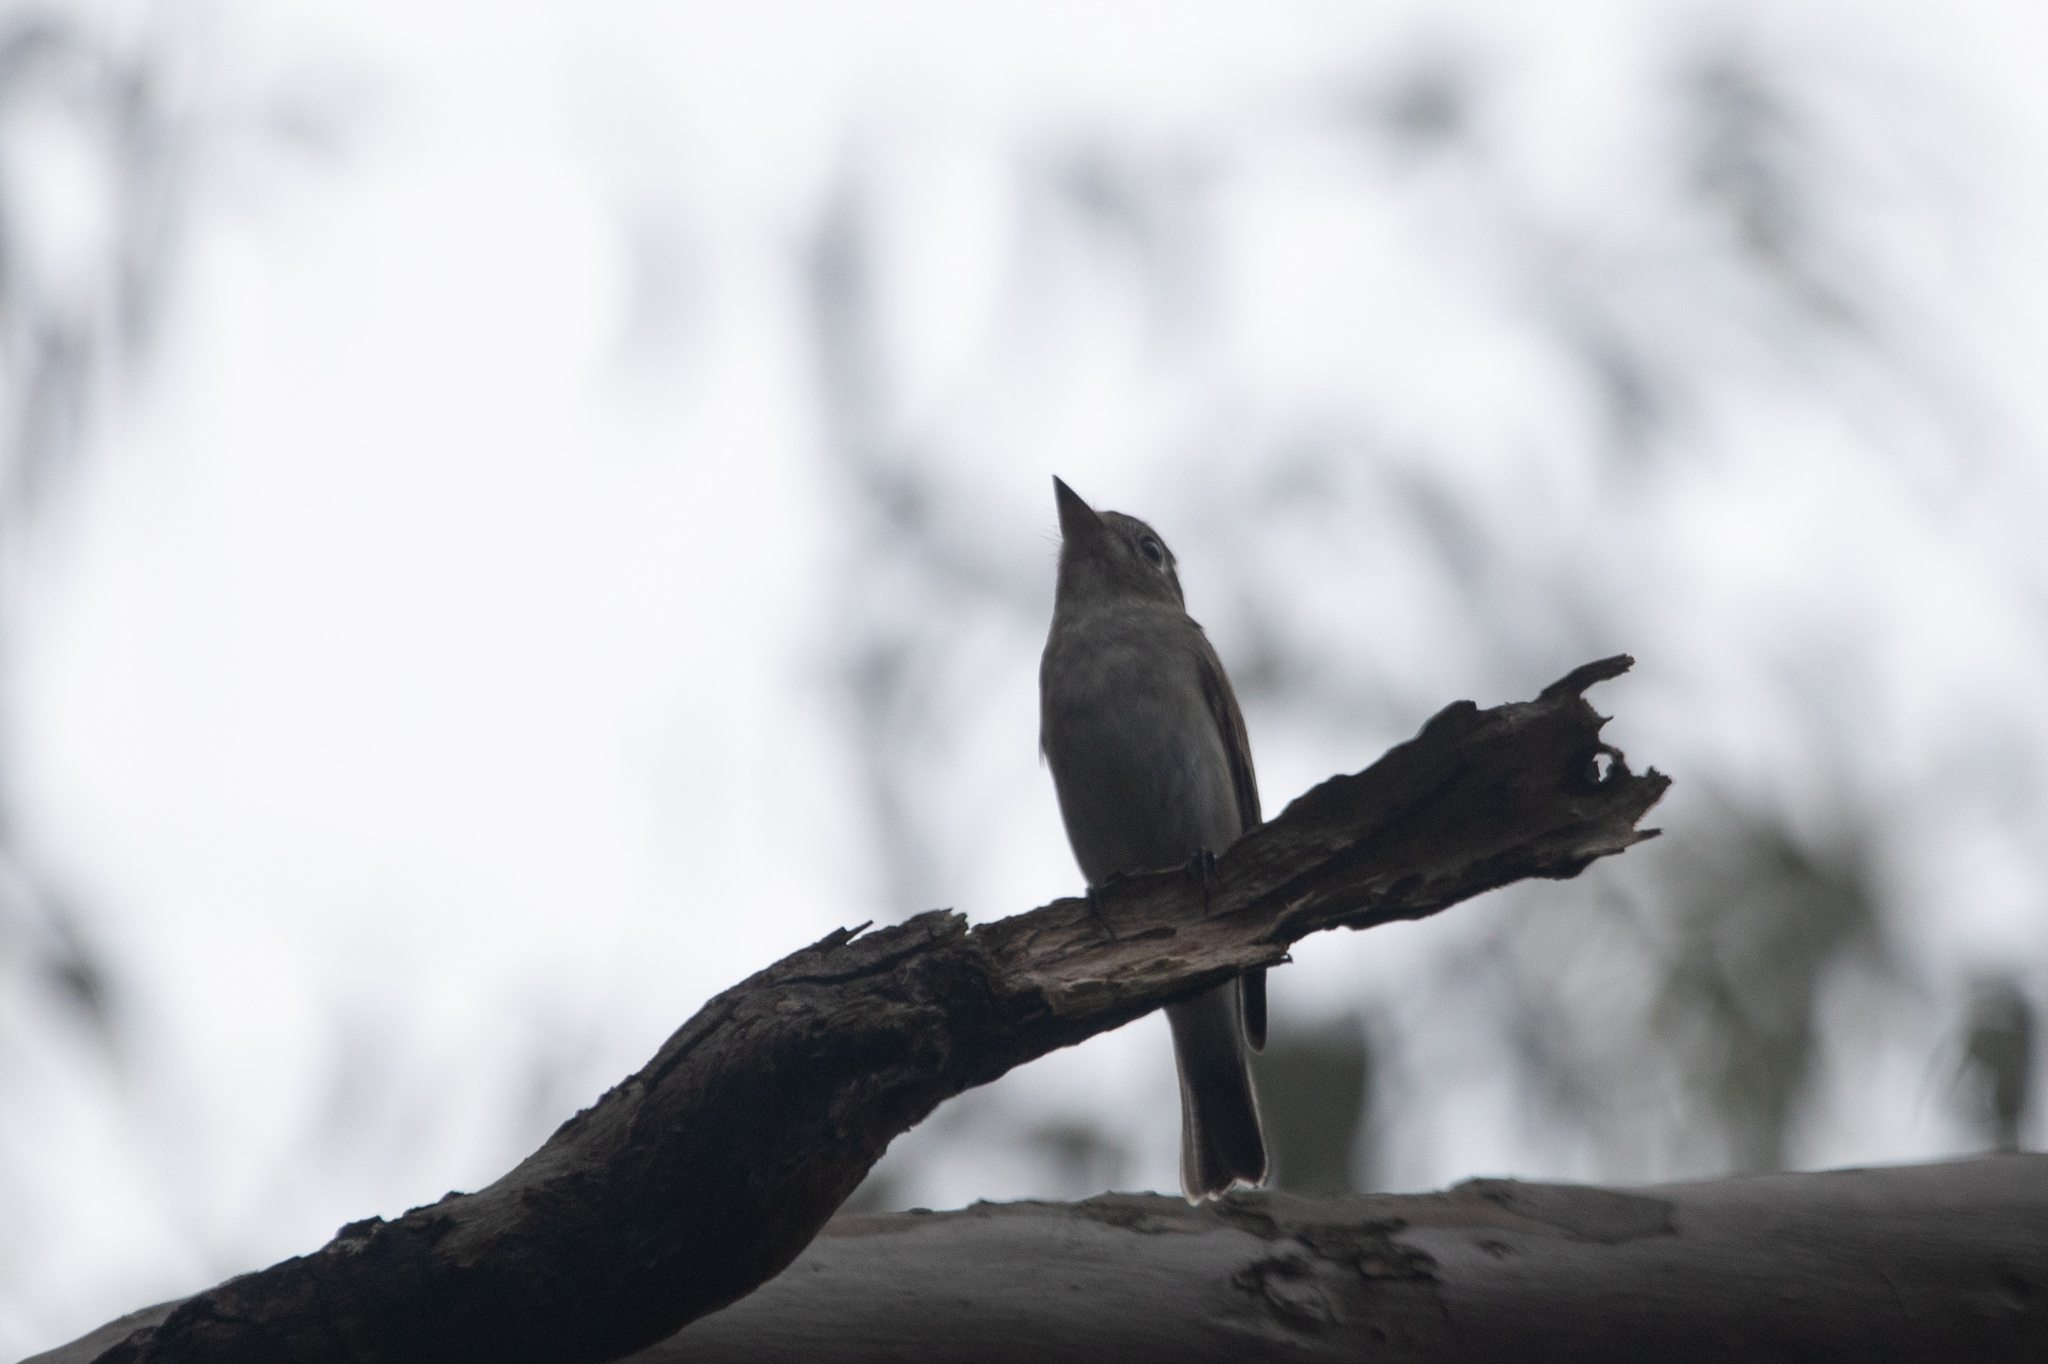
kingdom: Animalia
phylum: Chordata
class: Aves
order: Passeriformes
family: Muscicapidae
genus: Muscicapa
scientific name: Muscicapa latirostris
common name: Asian brown flycatcher
